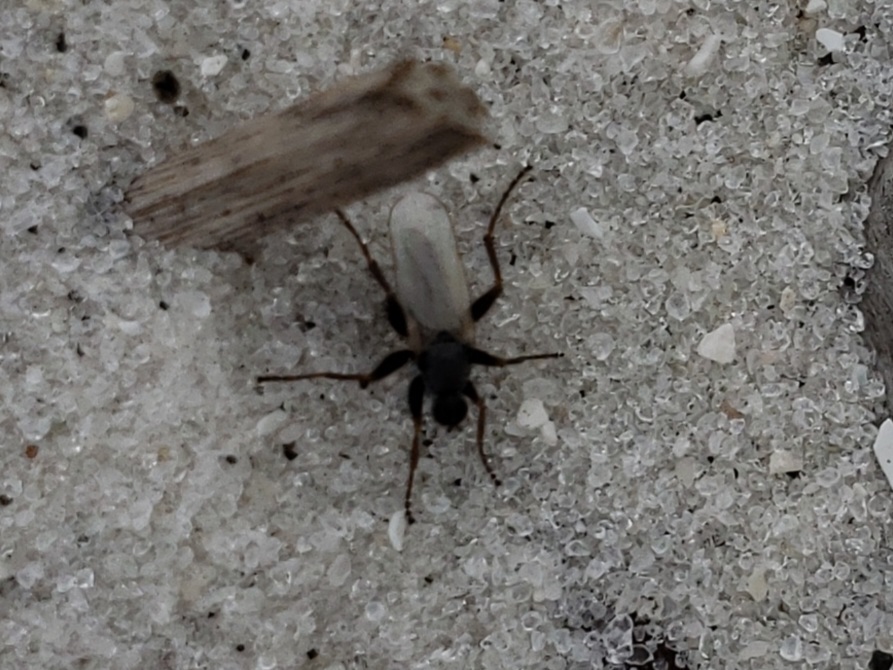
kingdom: Animalia
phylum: Arthropoda
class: Insecta
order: Diptera
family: Hybotidae
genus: Chersodromia
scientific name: Chersodromia inusitata
